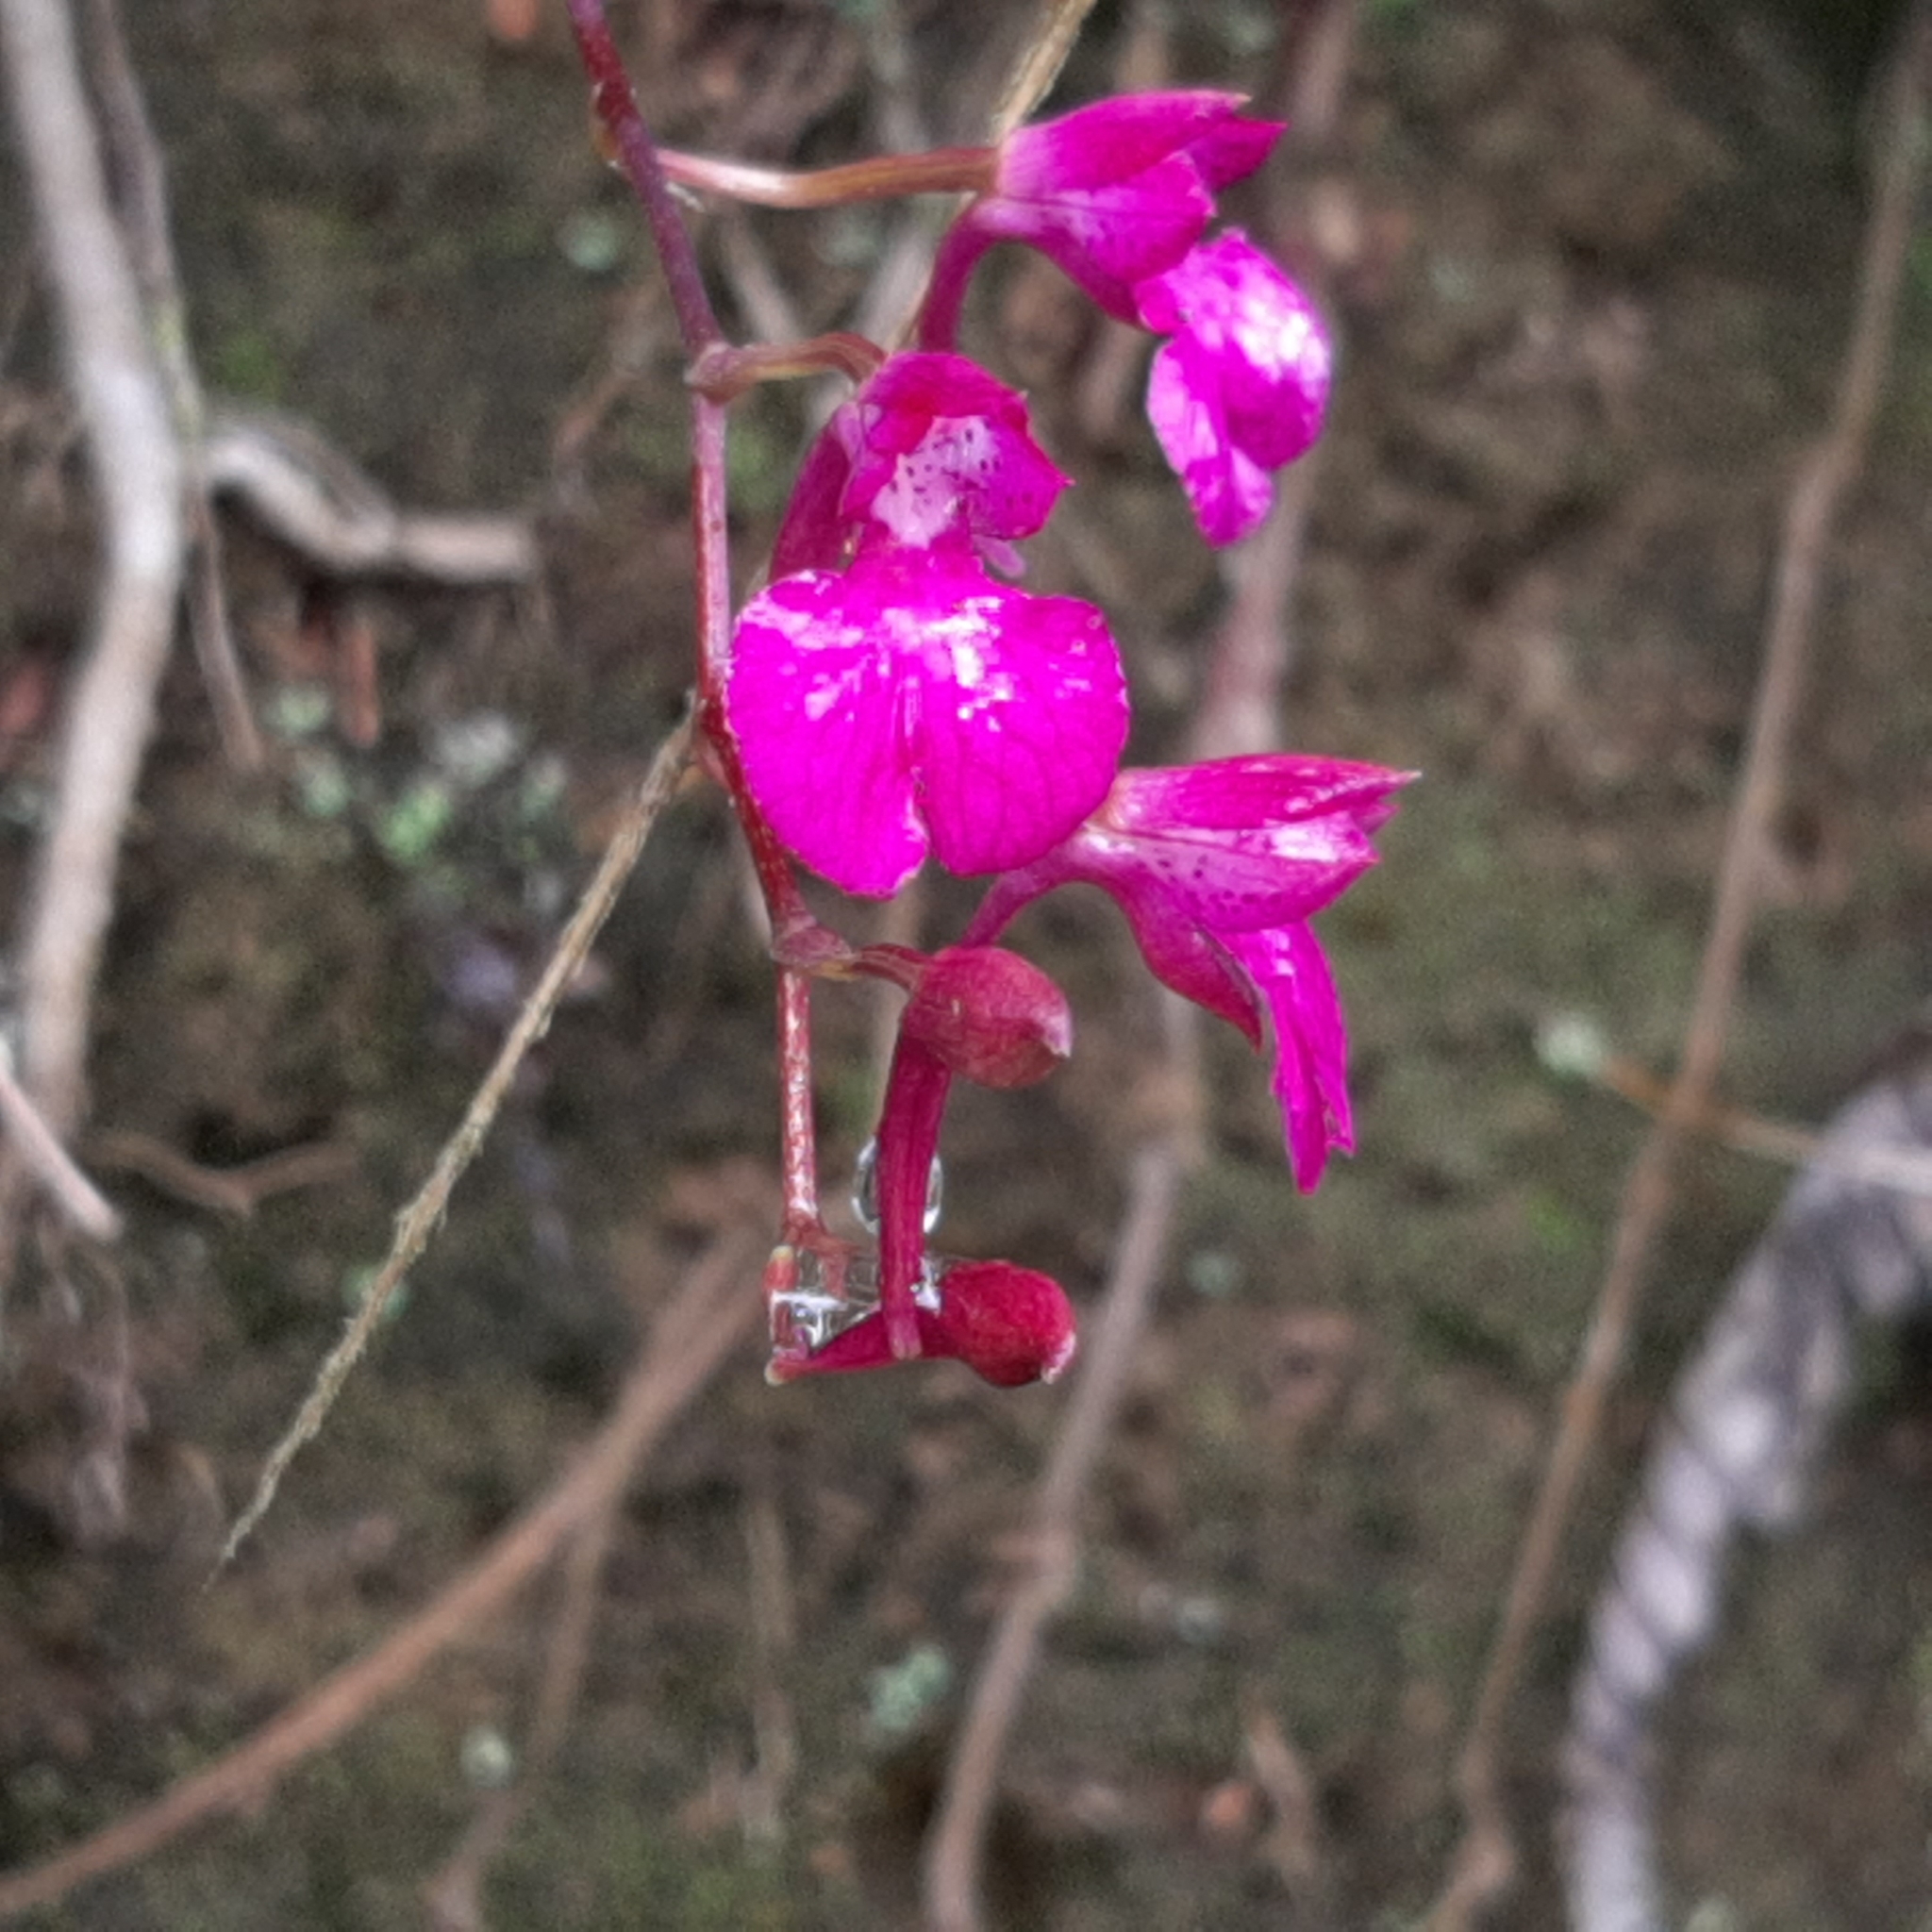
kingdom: Plantae
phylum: Tracheophyta
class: Liliopsida
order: Asparagales
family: Orchidaceae
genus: Comparettia
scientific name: Comparettia falcata
